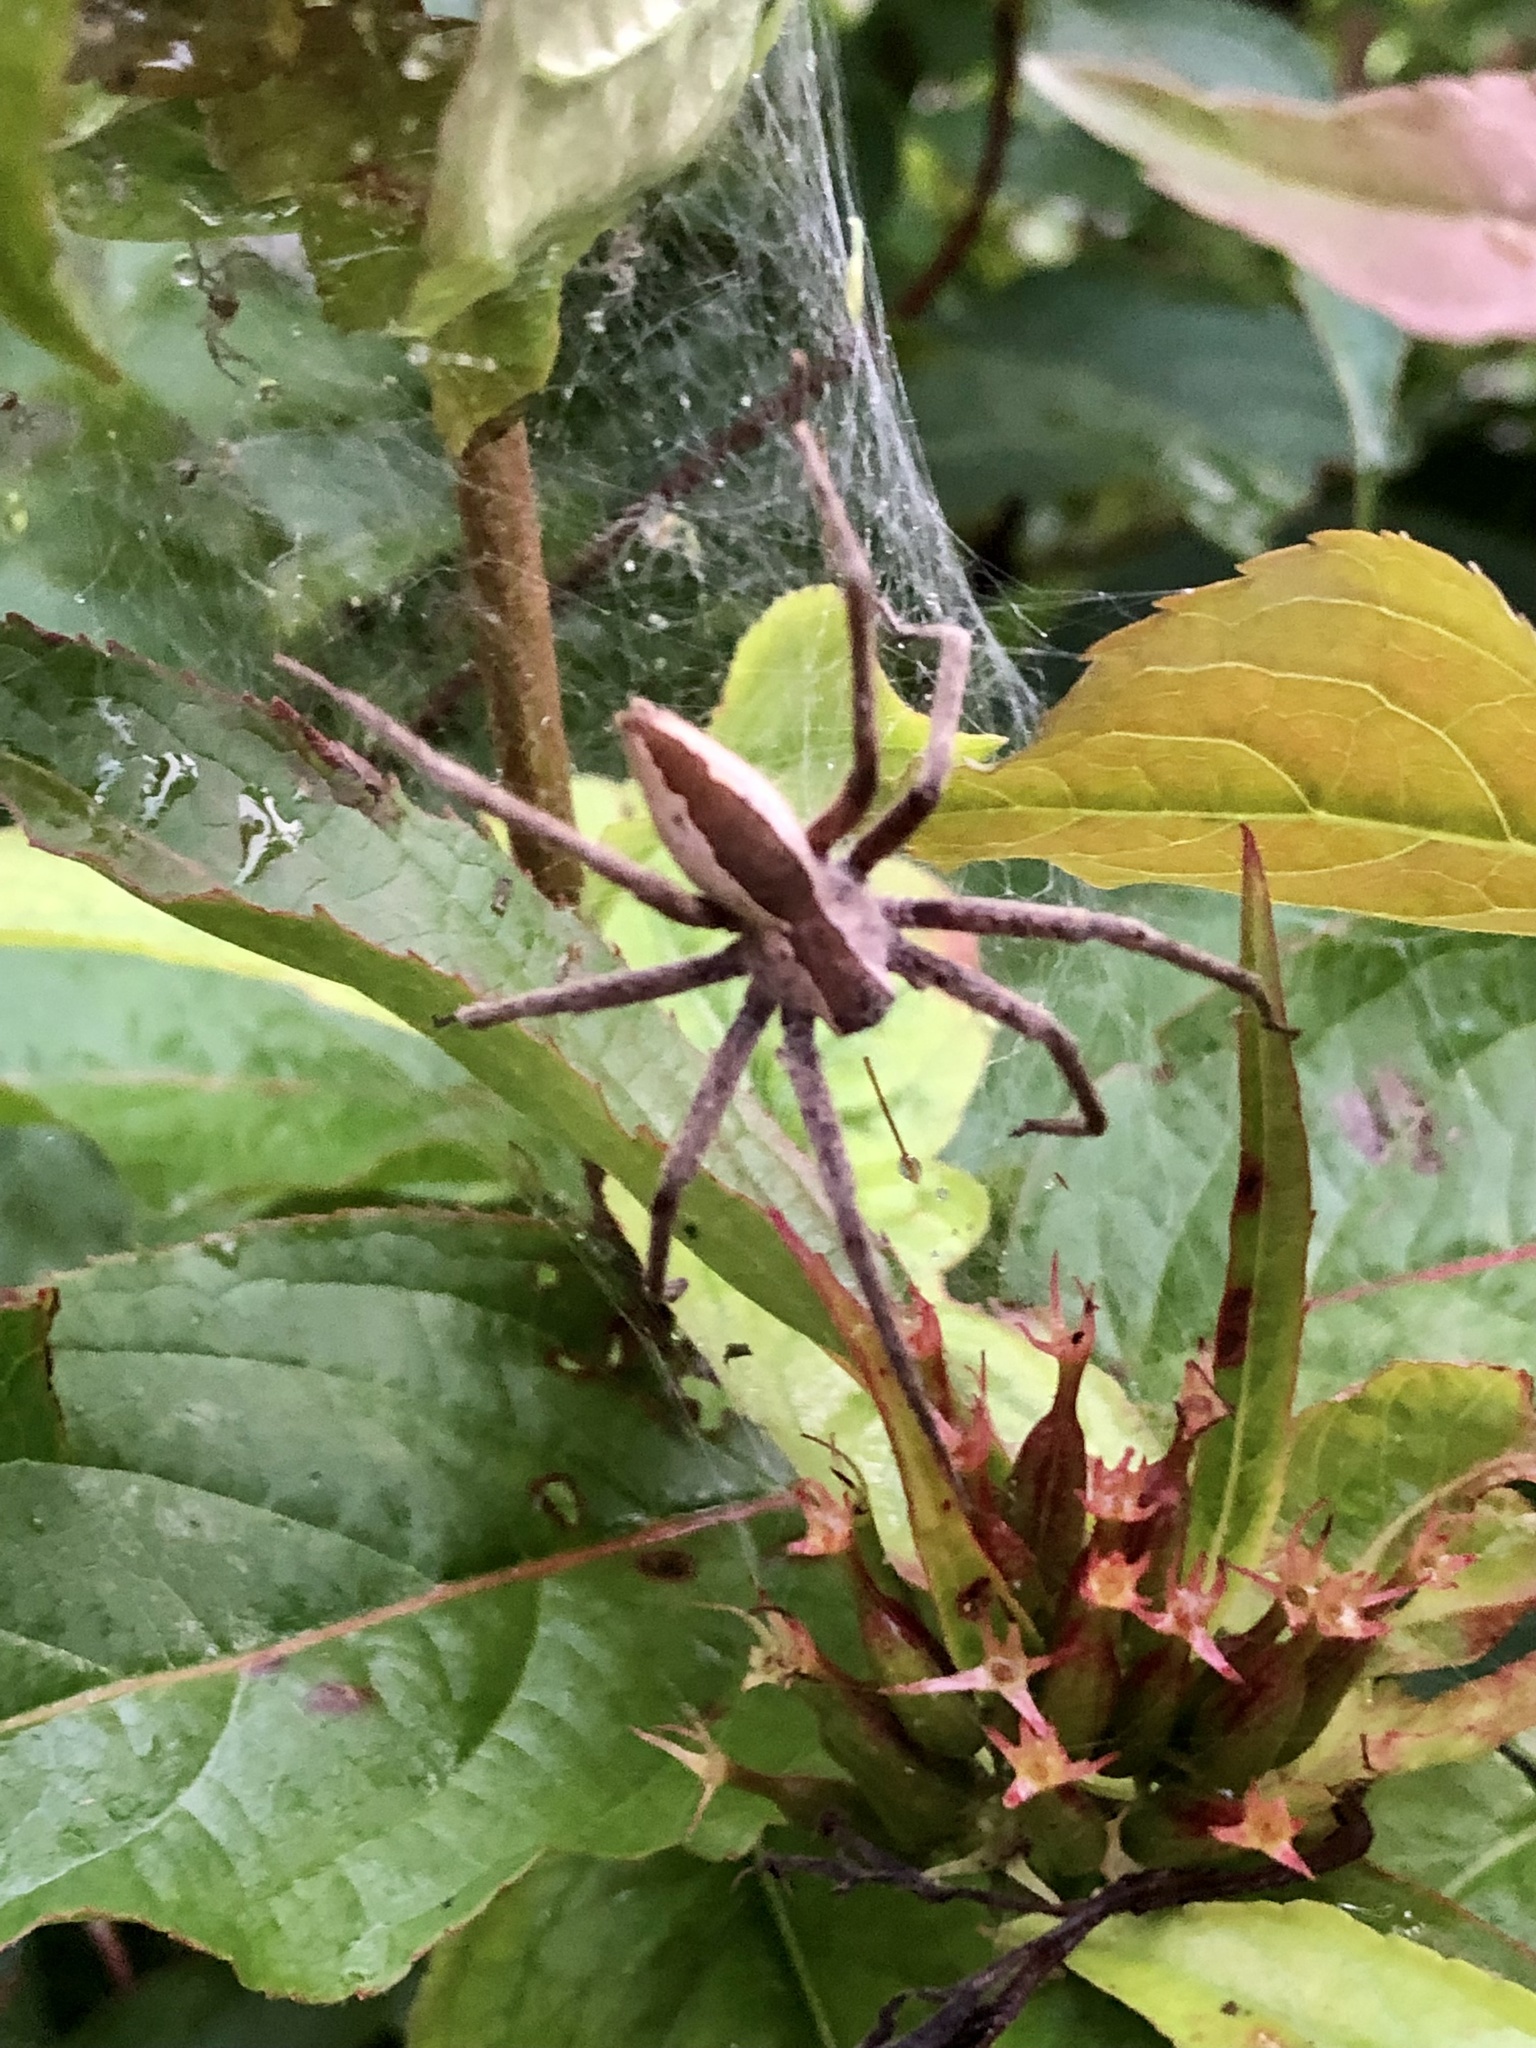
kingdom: Animalia
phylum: Arthropoda
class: Arachnida
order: Araneae
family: Pisauridae
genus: Pisaurina
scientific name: Pisaurina mira
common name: American nursery web spider
